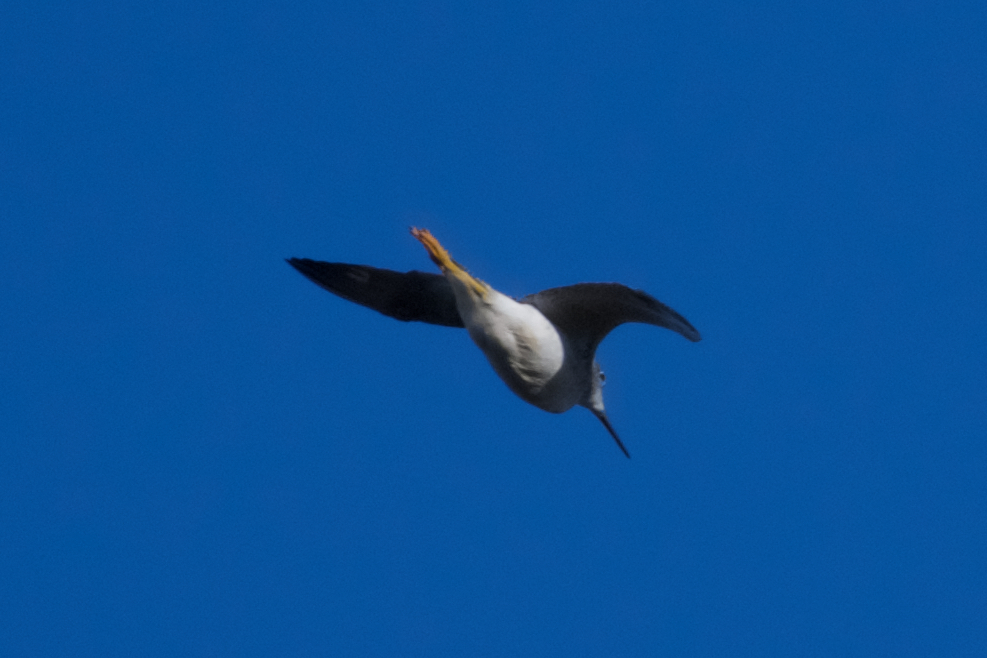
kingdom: Animalia
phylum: Chordata
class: Aves
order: Charadriiformes
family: Scolopacidae
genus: Tringa
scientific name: Tringa melanoleuca
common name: Greater yellowlegs
